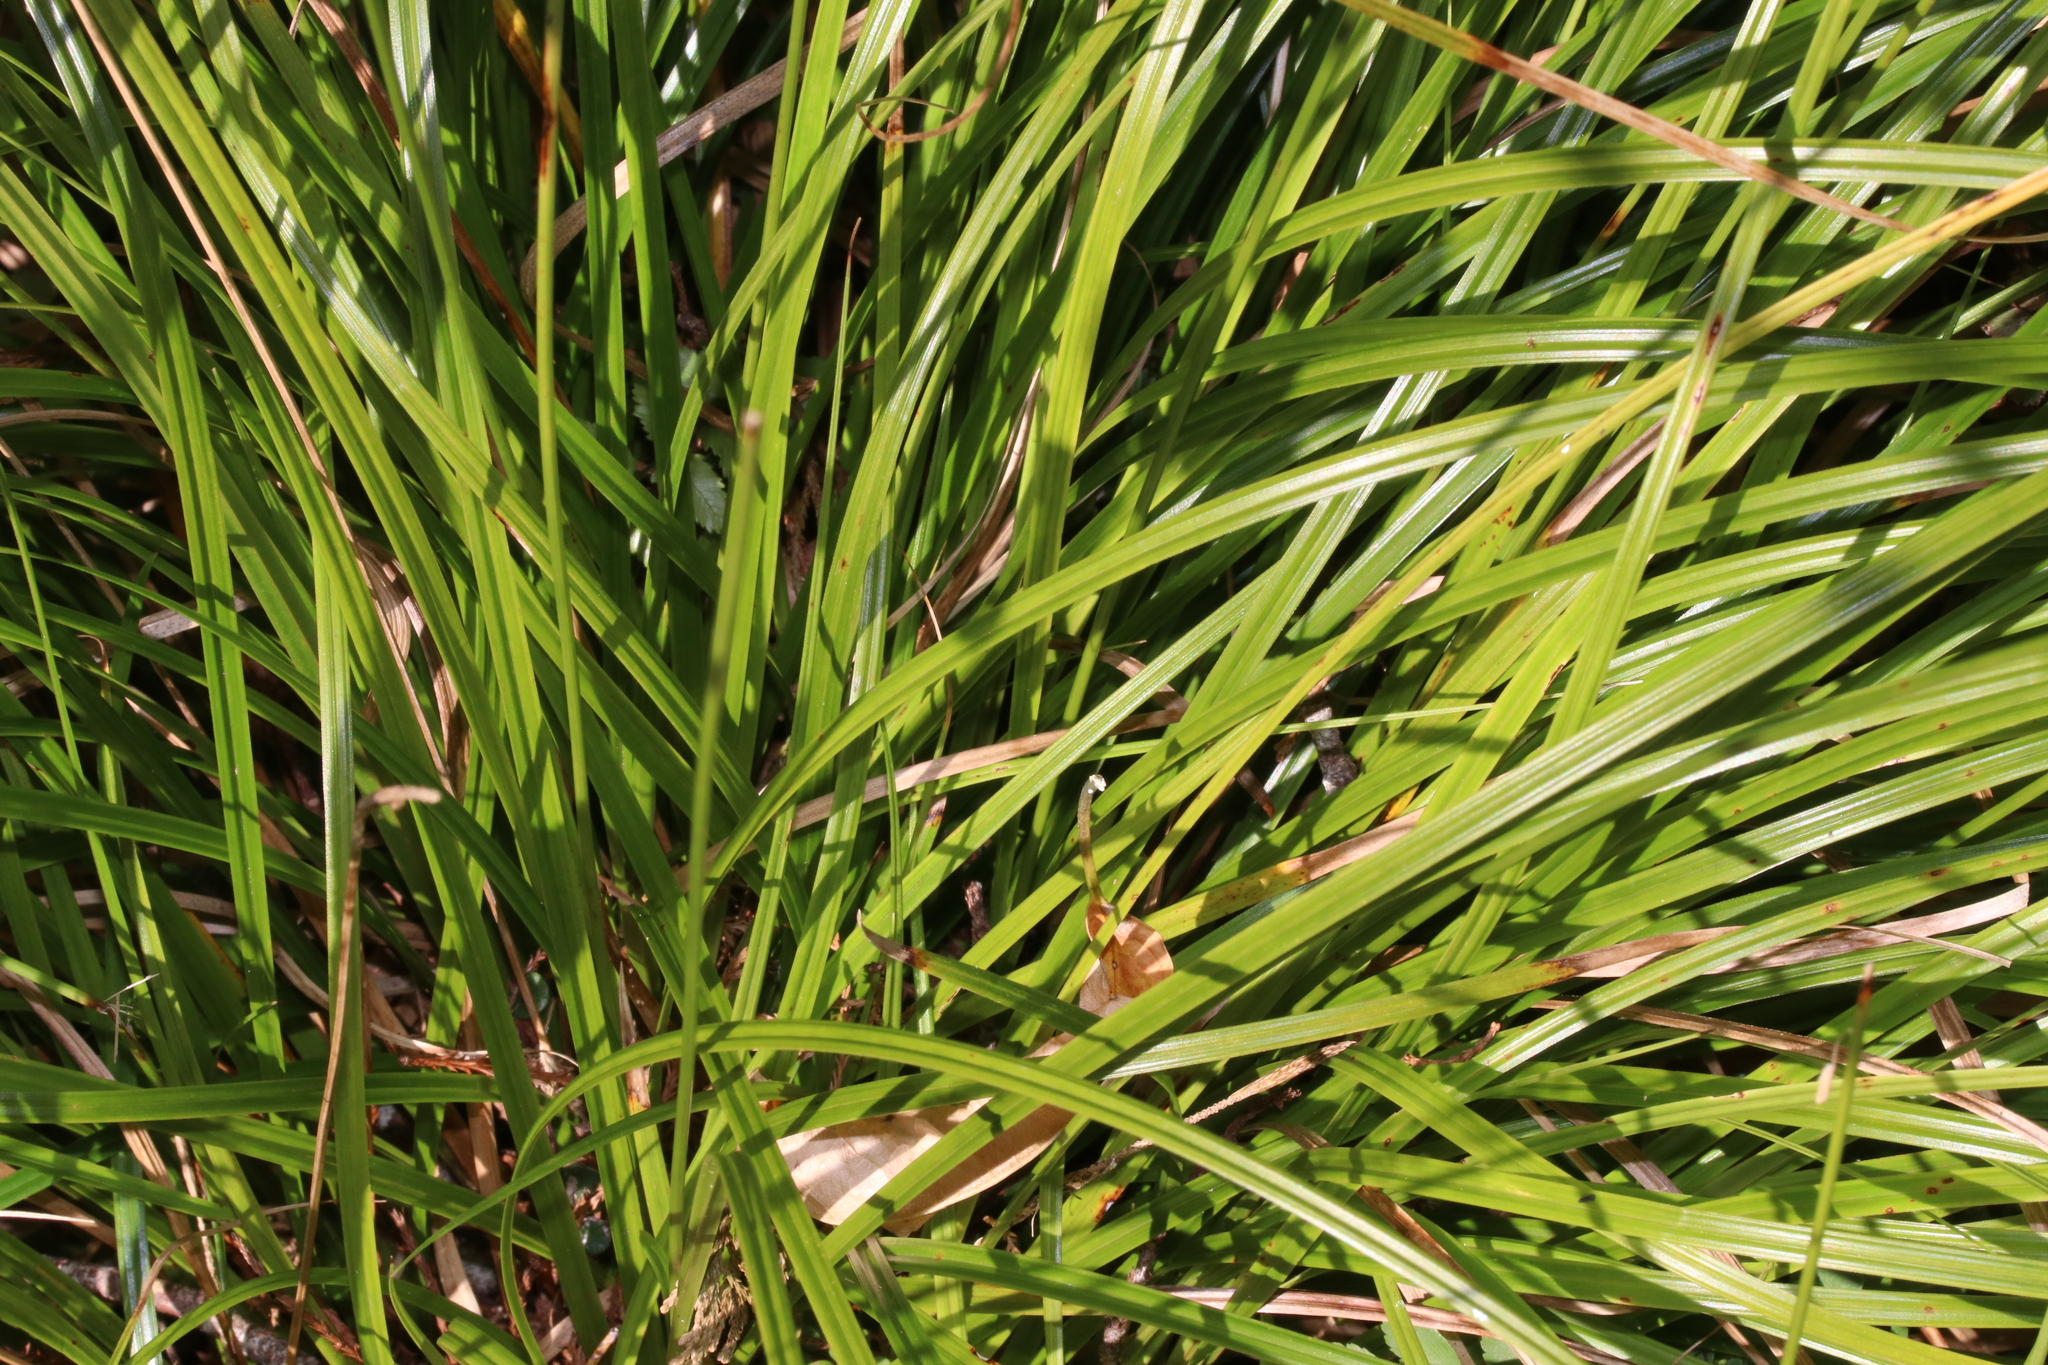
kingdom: Plantae
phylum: Tracheophyta
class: Liliopsida
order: Poales
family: Cyperaceae
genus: Carex
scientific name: Carex virgata
